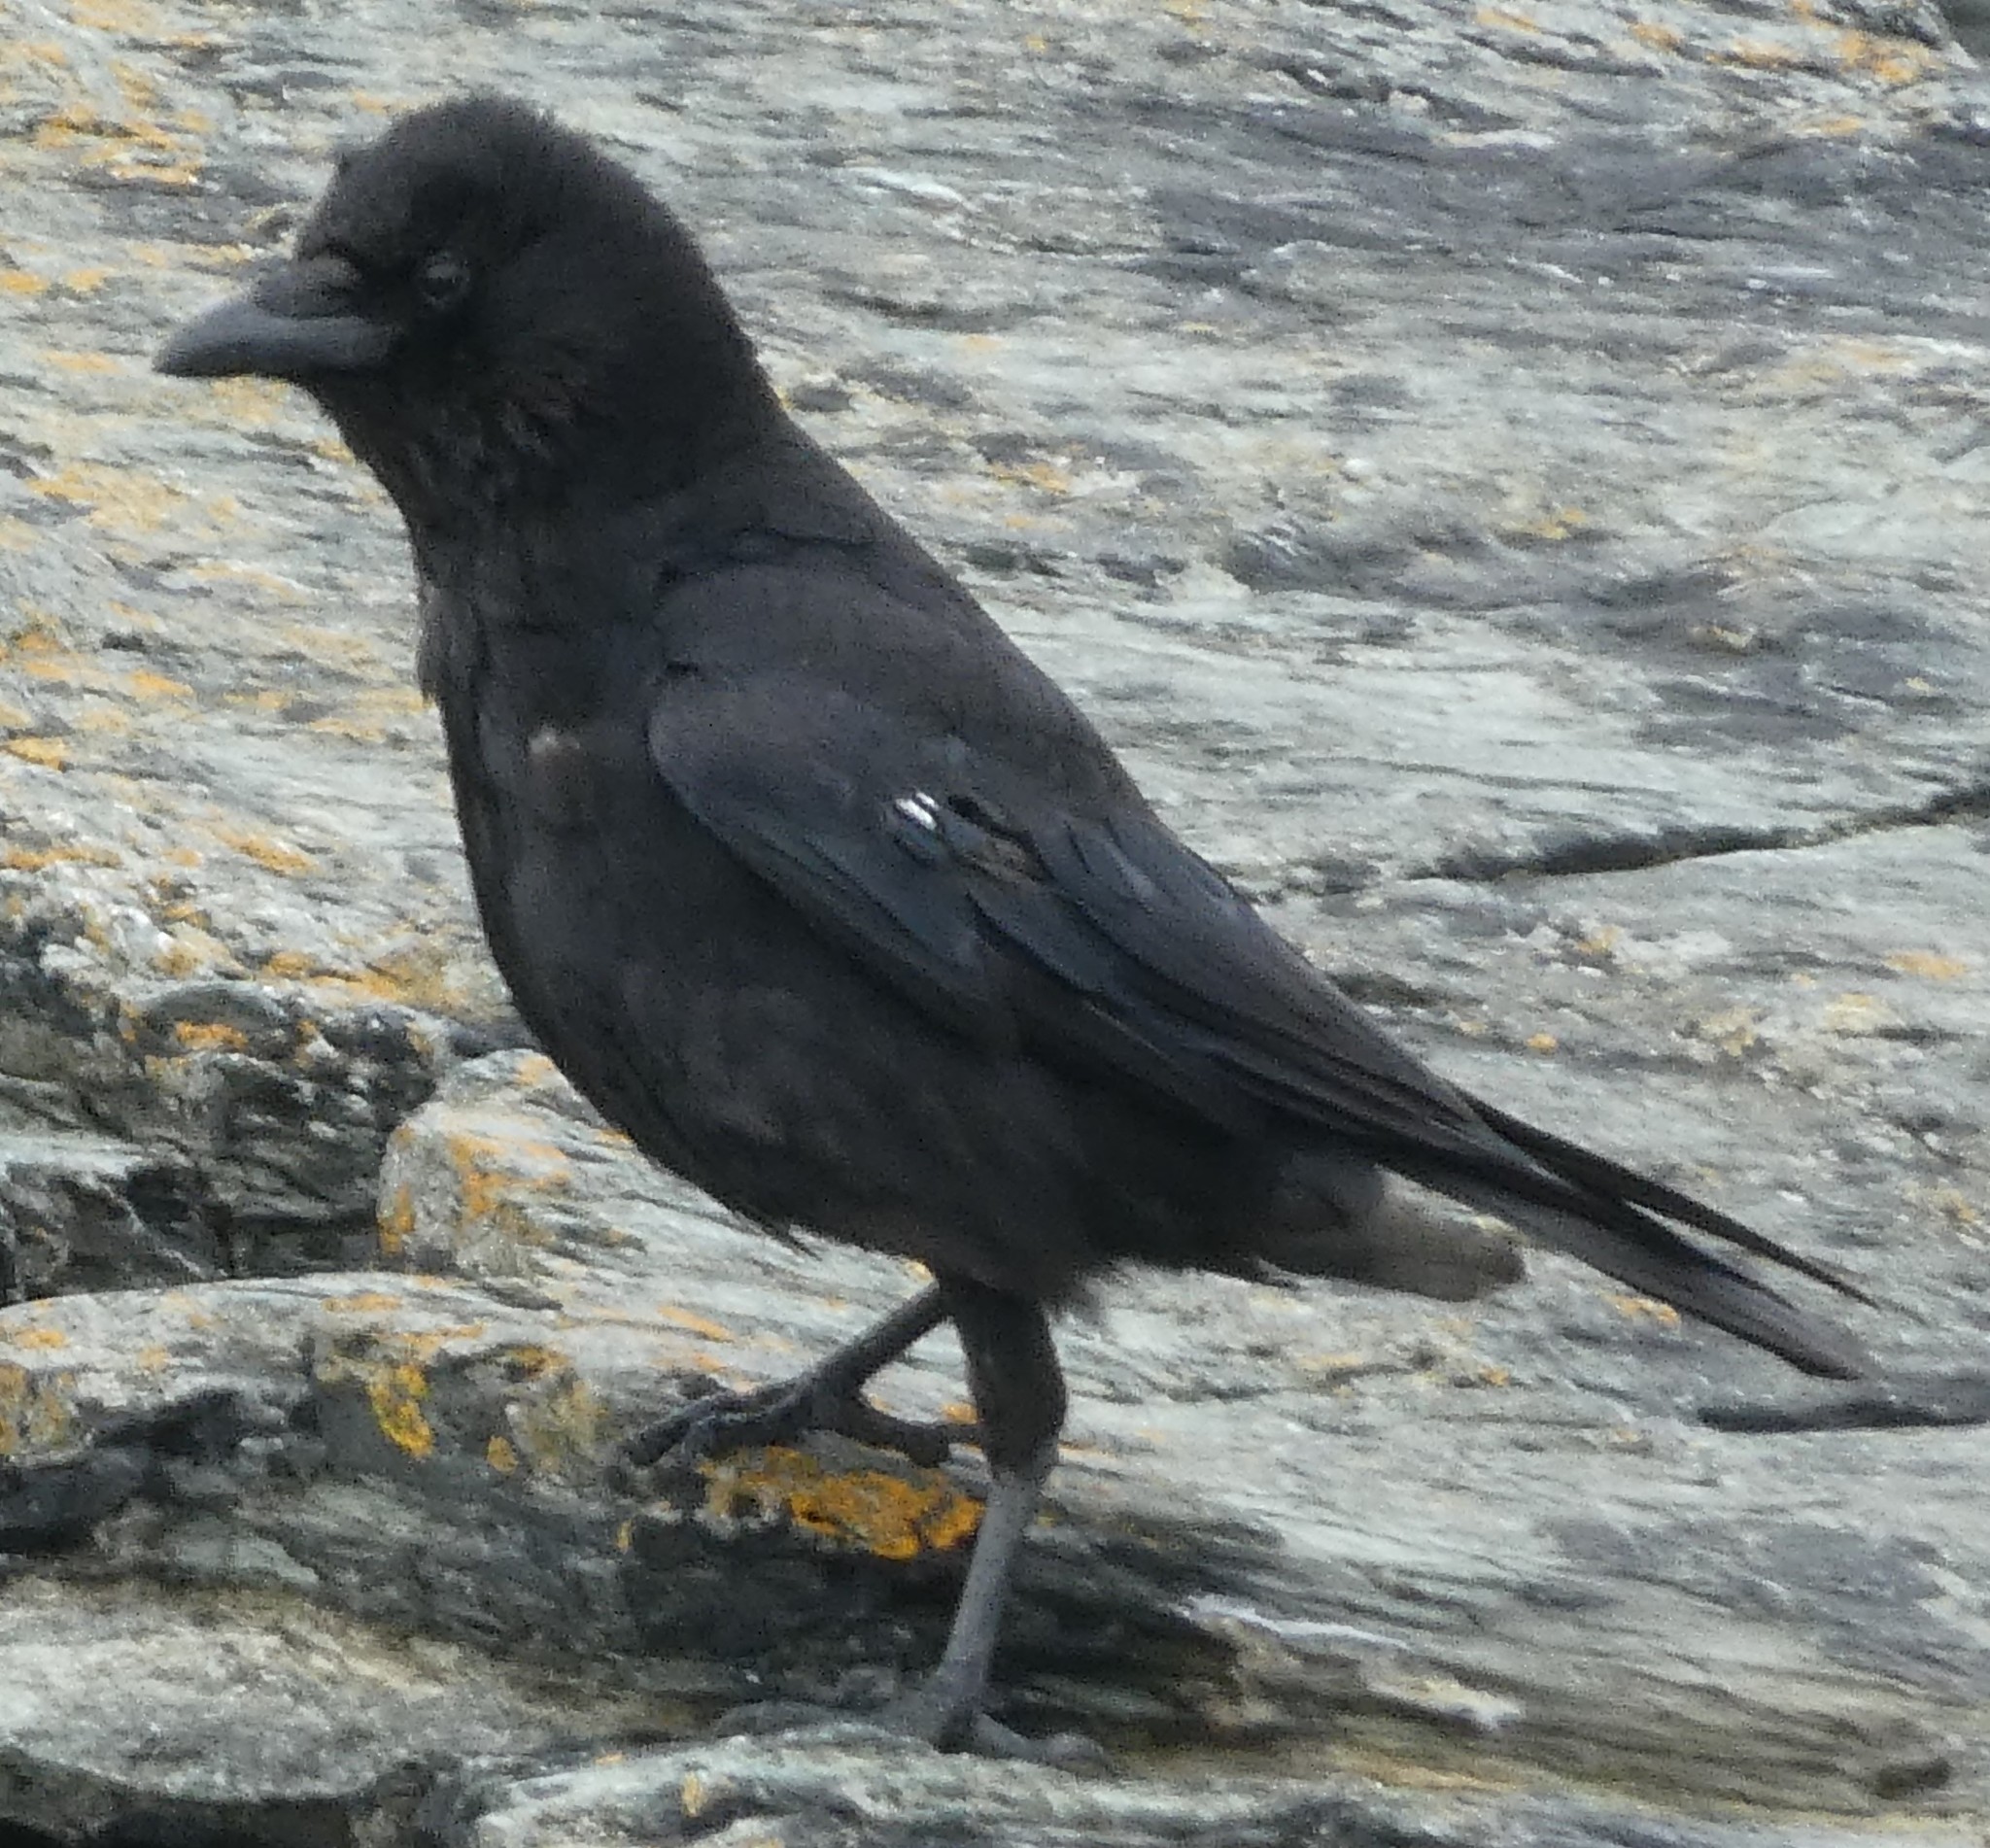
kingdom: Animalia
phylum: Chordata
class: Aves
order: Passeriformes
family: Corvidae
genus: Corvus
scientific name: Corvus corone
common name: Carrion crow
